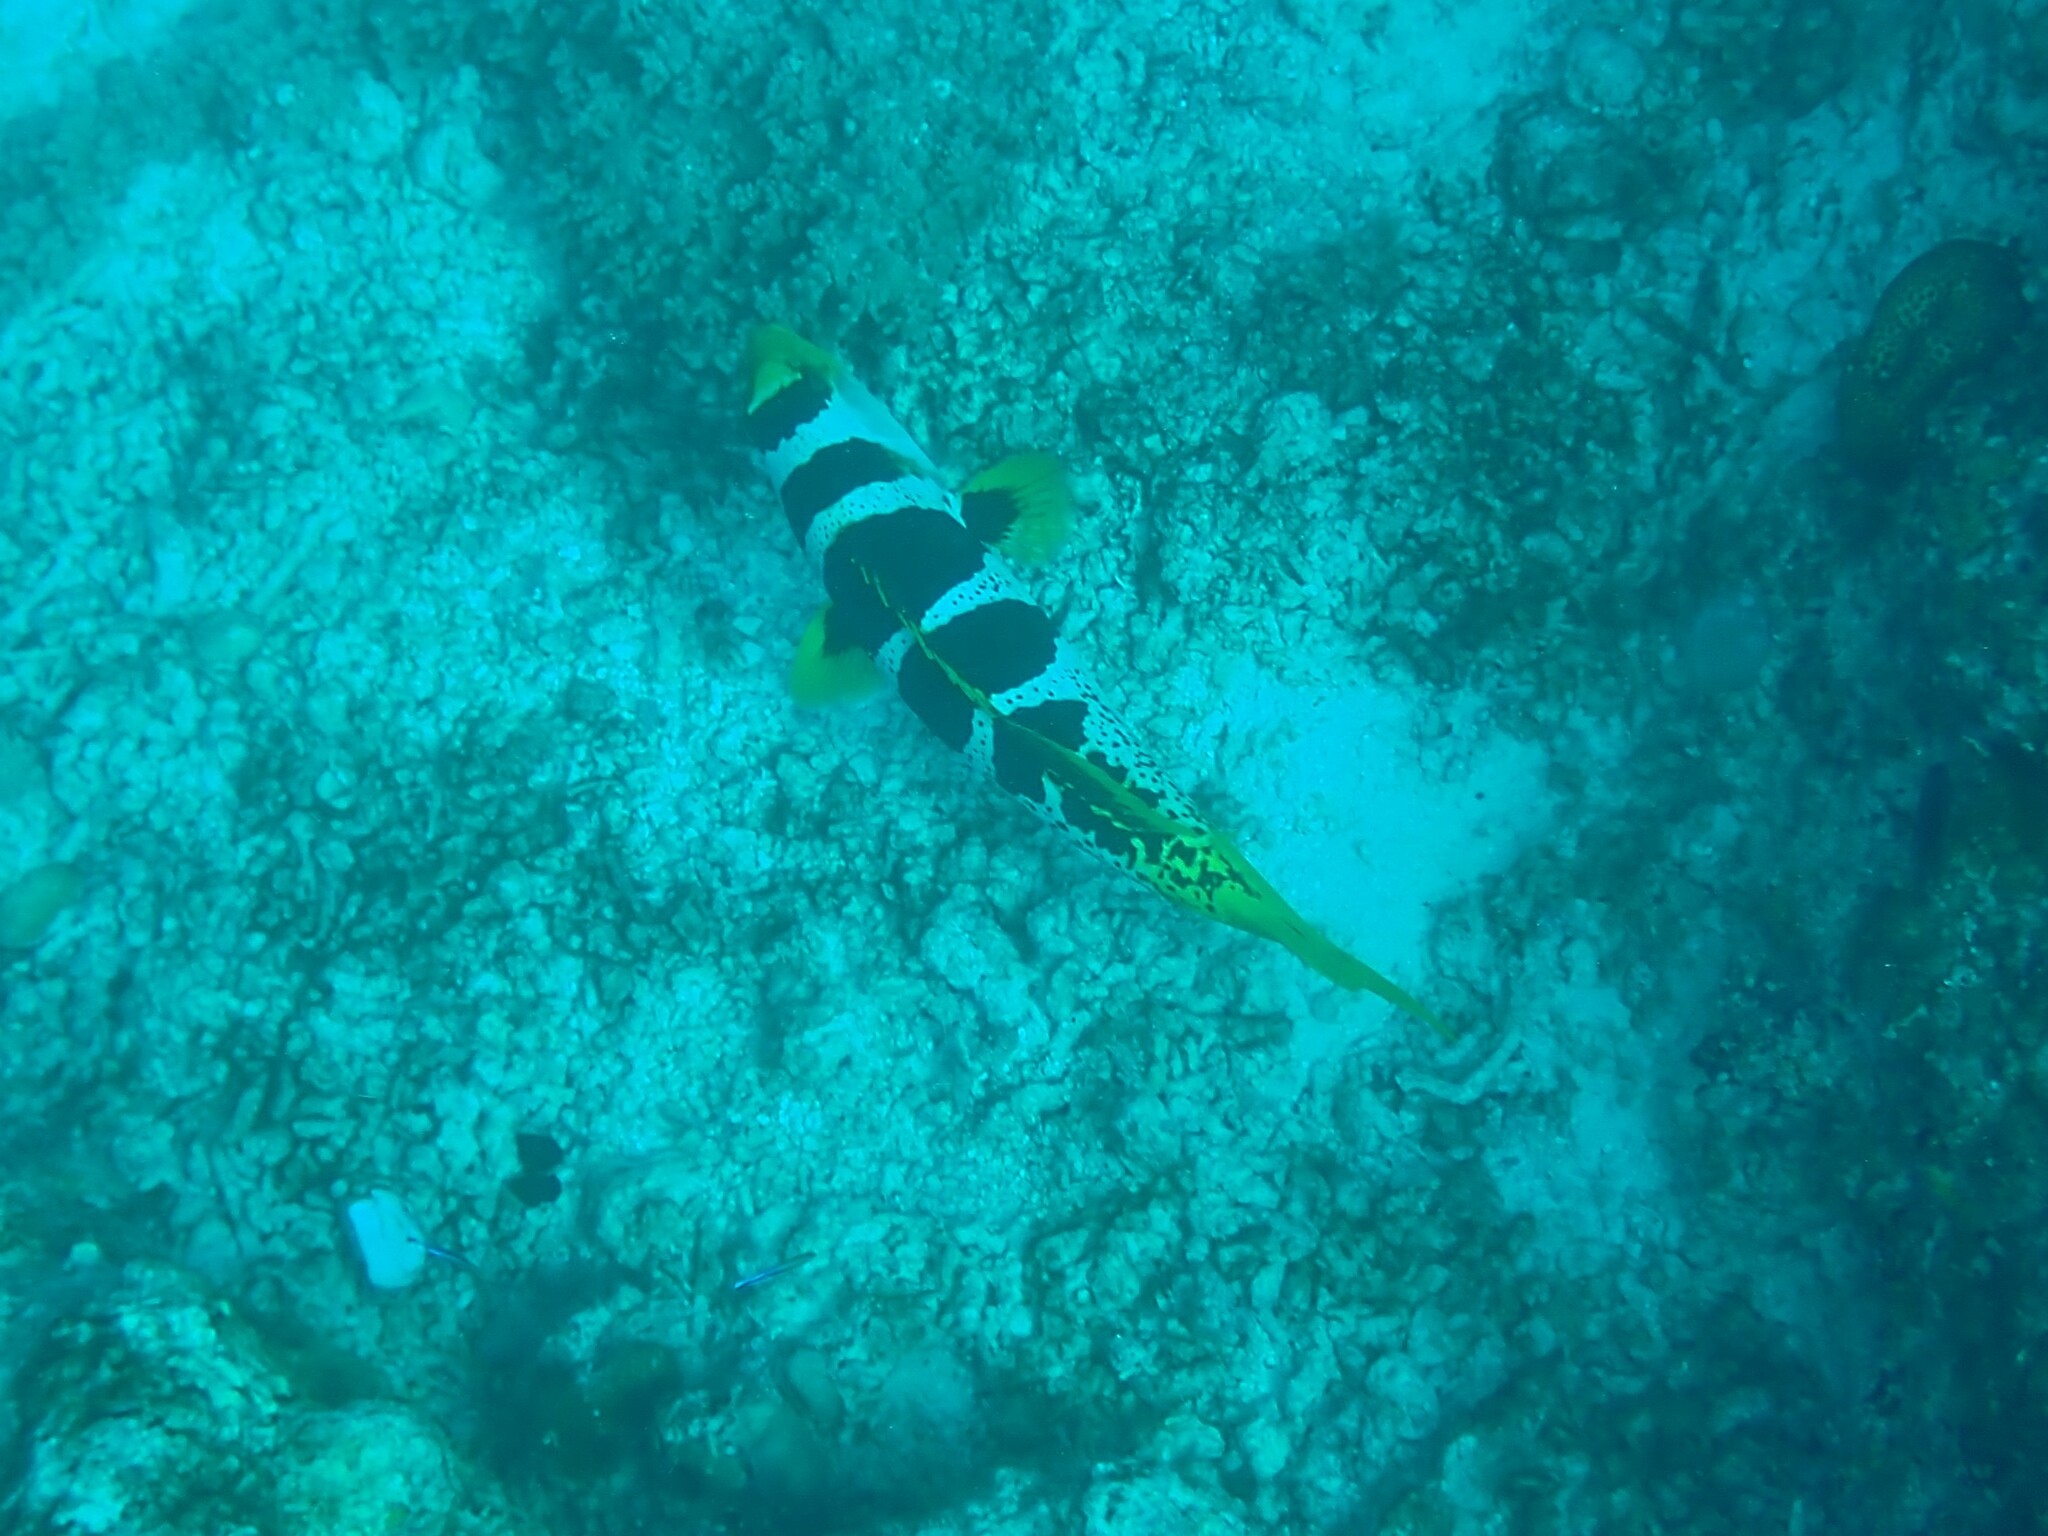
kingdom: Animalia
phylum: Chordata
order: Perciformes
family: Serranidae
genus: Plectropomus
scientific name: Plectropomus laevis
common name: Chinese footballer
